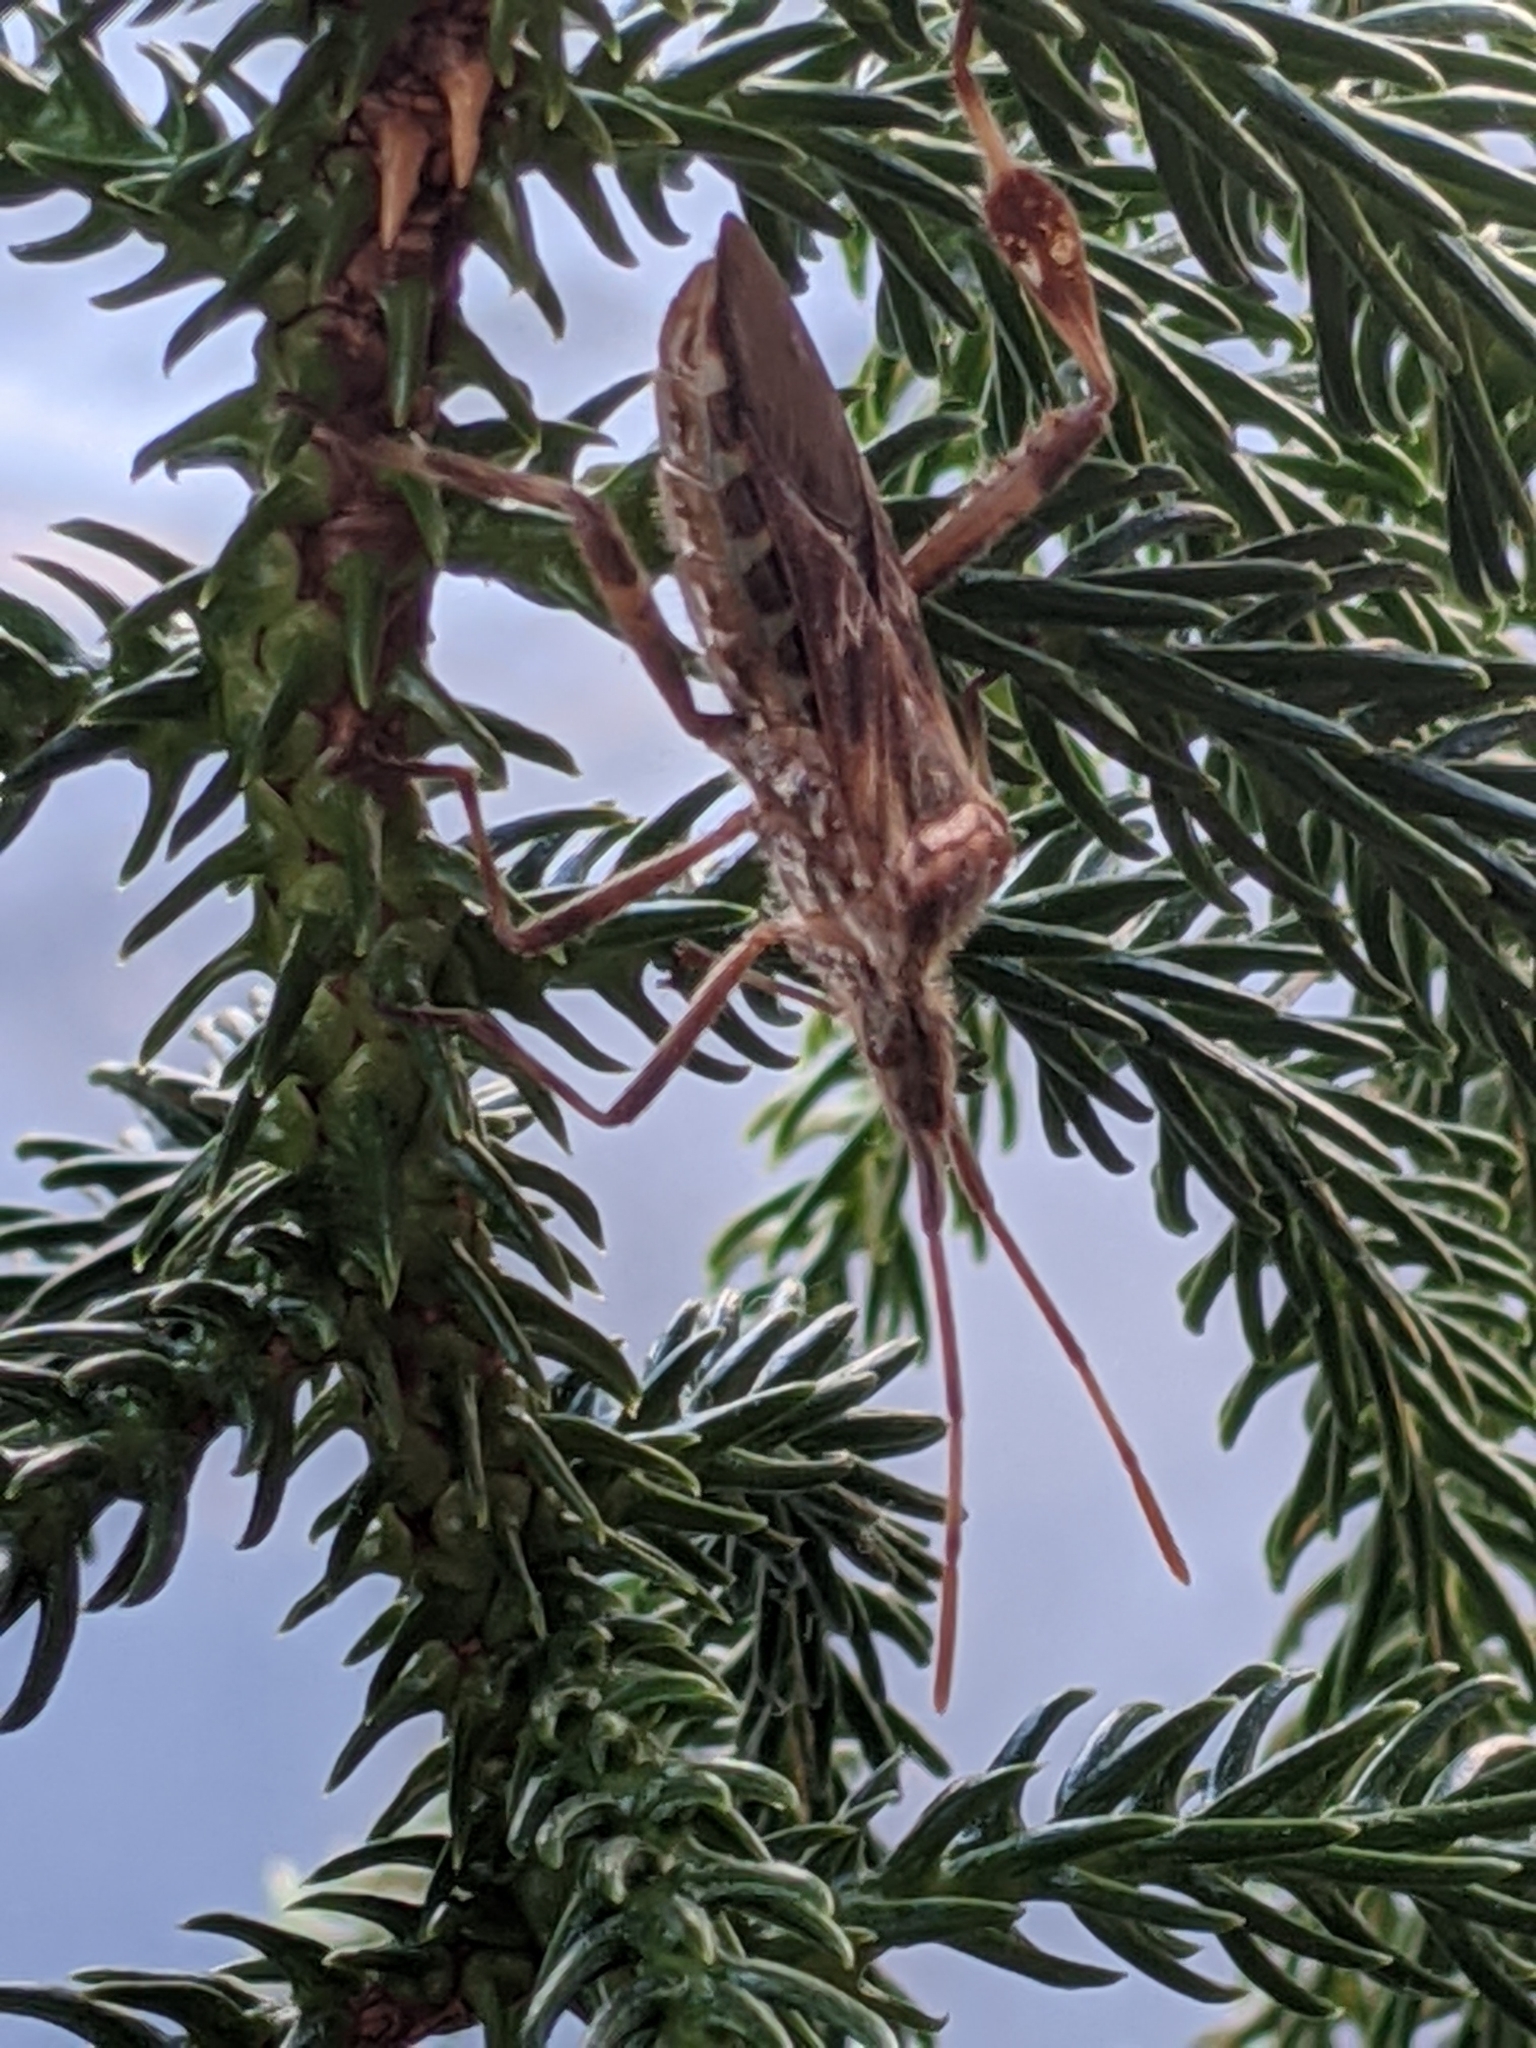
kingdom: Animalia
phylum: Arthropoda
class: Insecta
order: Hemiptera
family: Coreidae
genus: Leptoglossus
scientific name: Leptoglossus occidentalis
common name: Western conifer-seed bug
